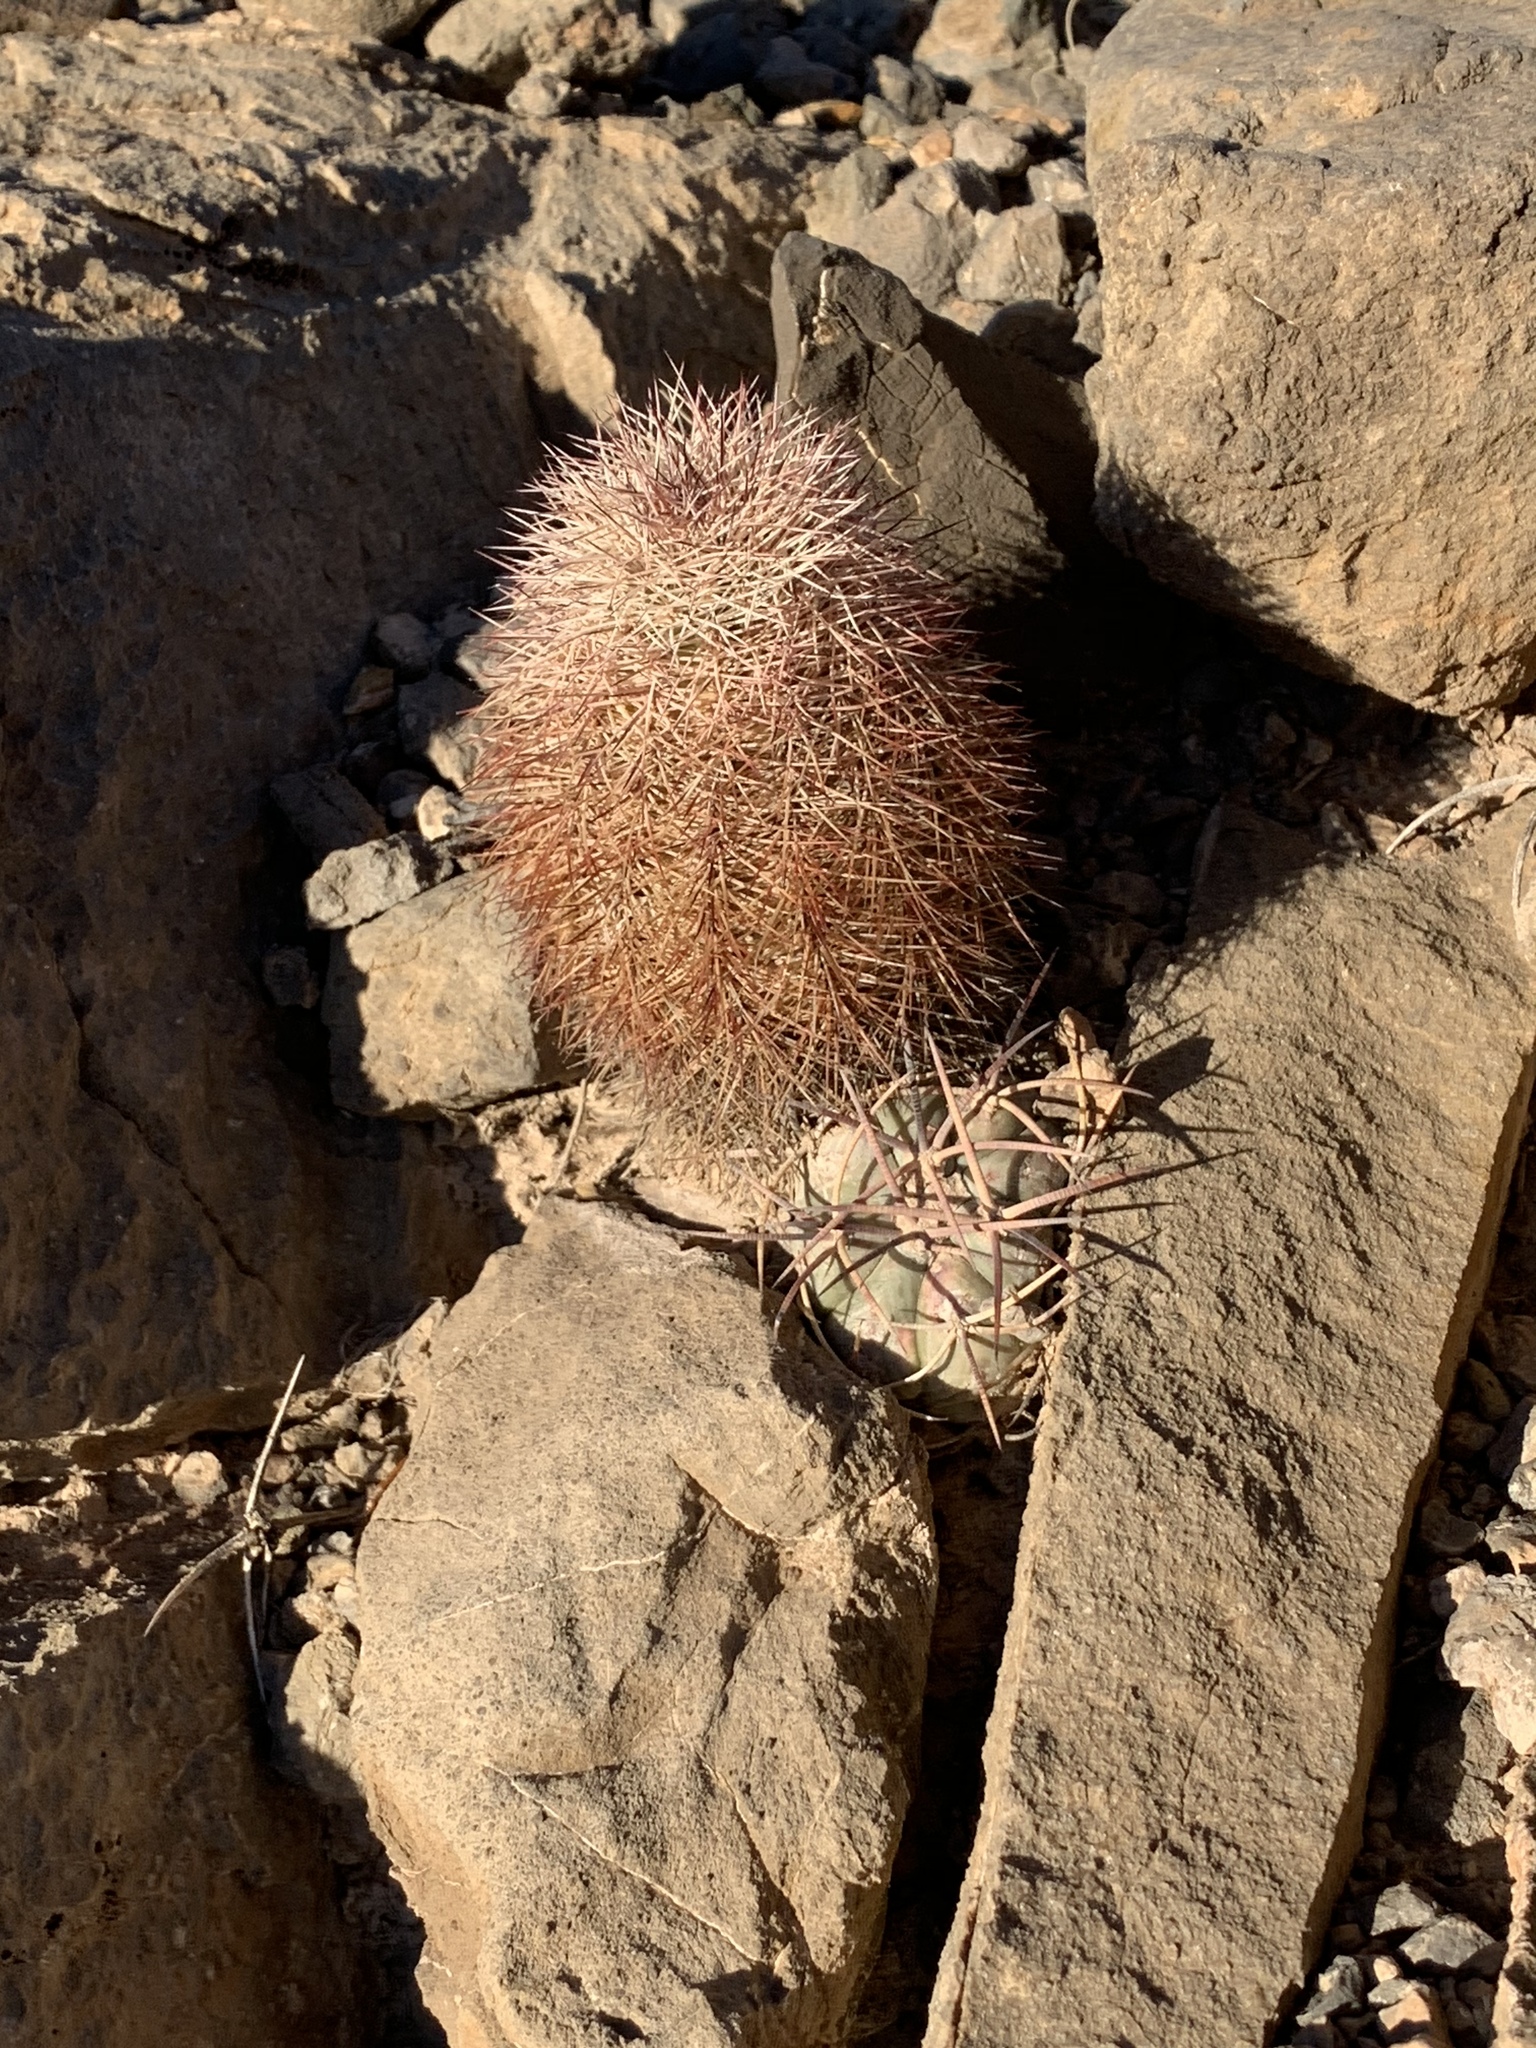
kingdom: Plantae
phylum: Tracheophyta
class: Magnoliopsida
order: Caryophyllales
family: Cactaceae
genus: Echinocereus
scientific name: Echinocereus dasyacanthus
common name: Spiny hedgehog cactus
